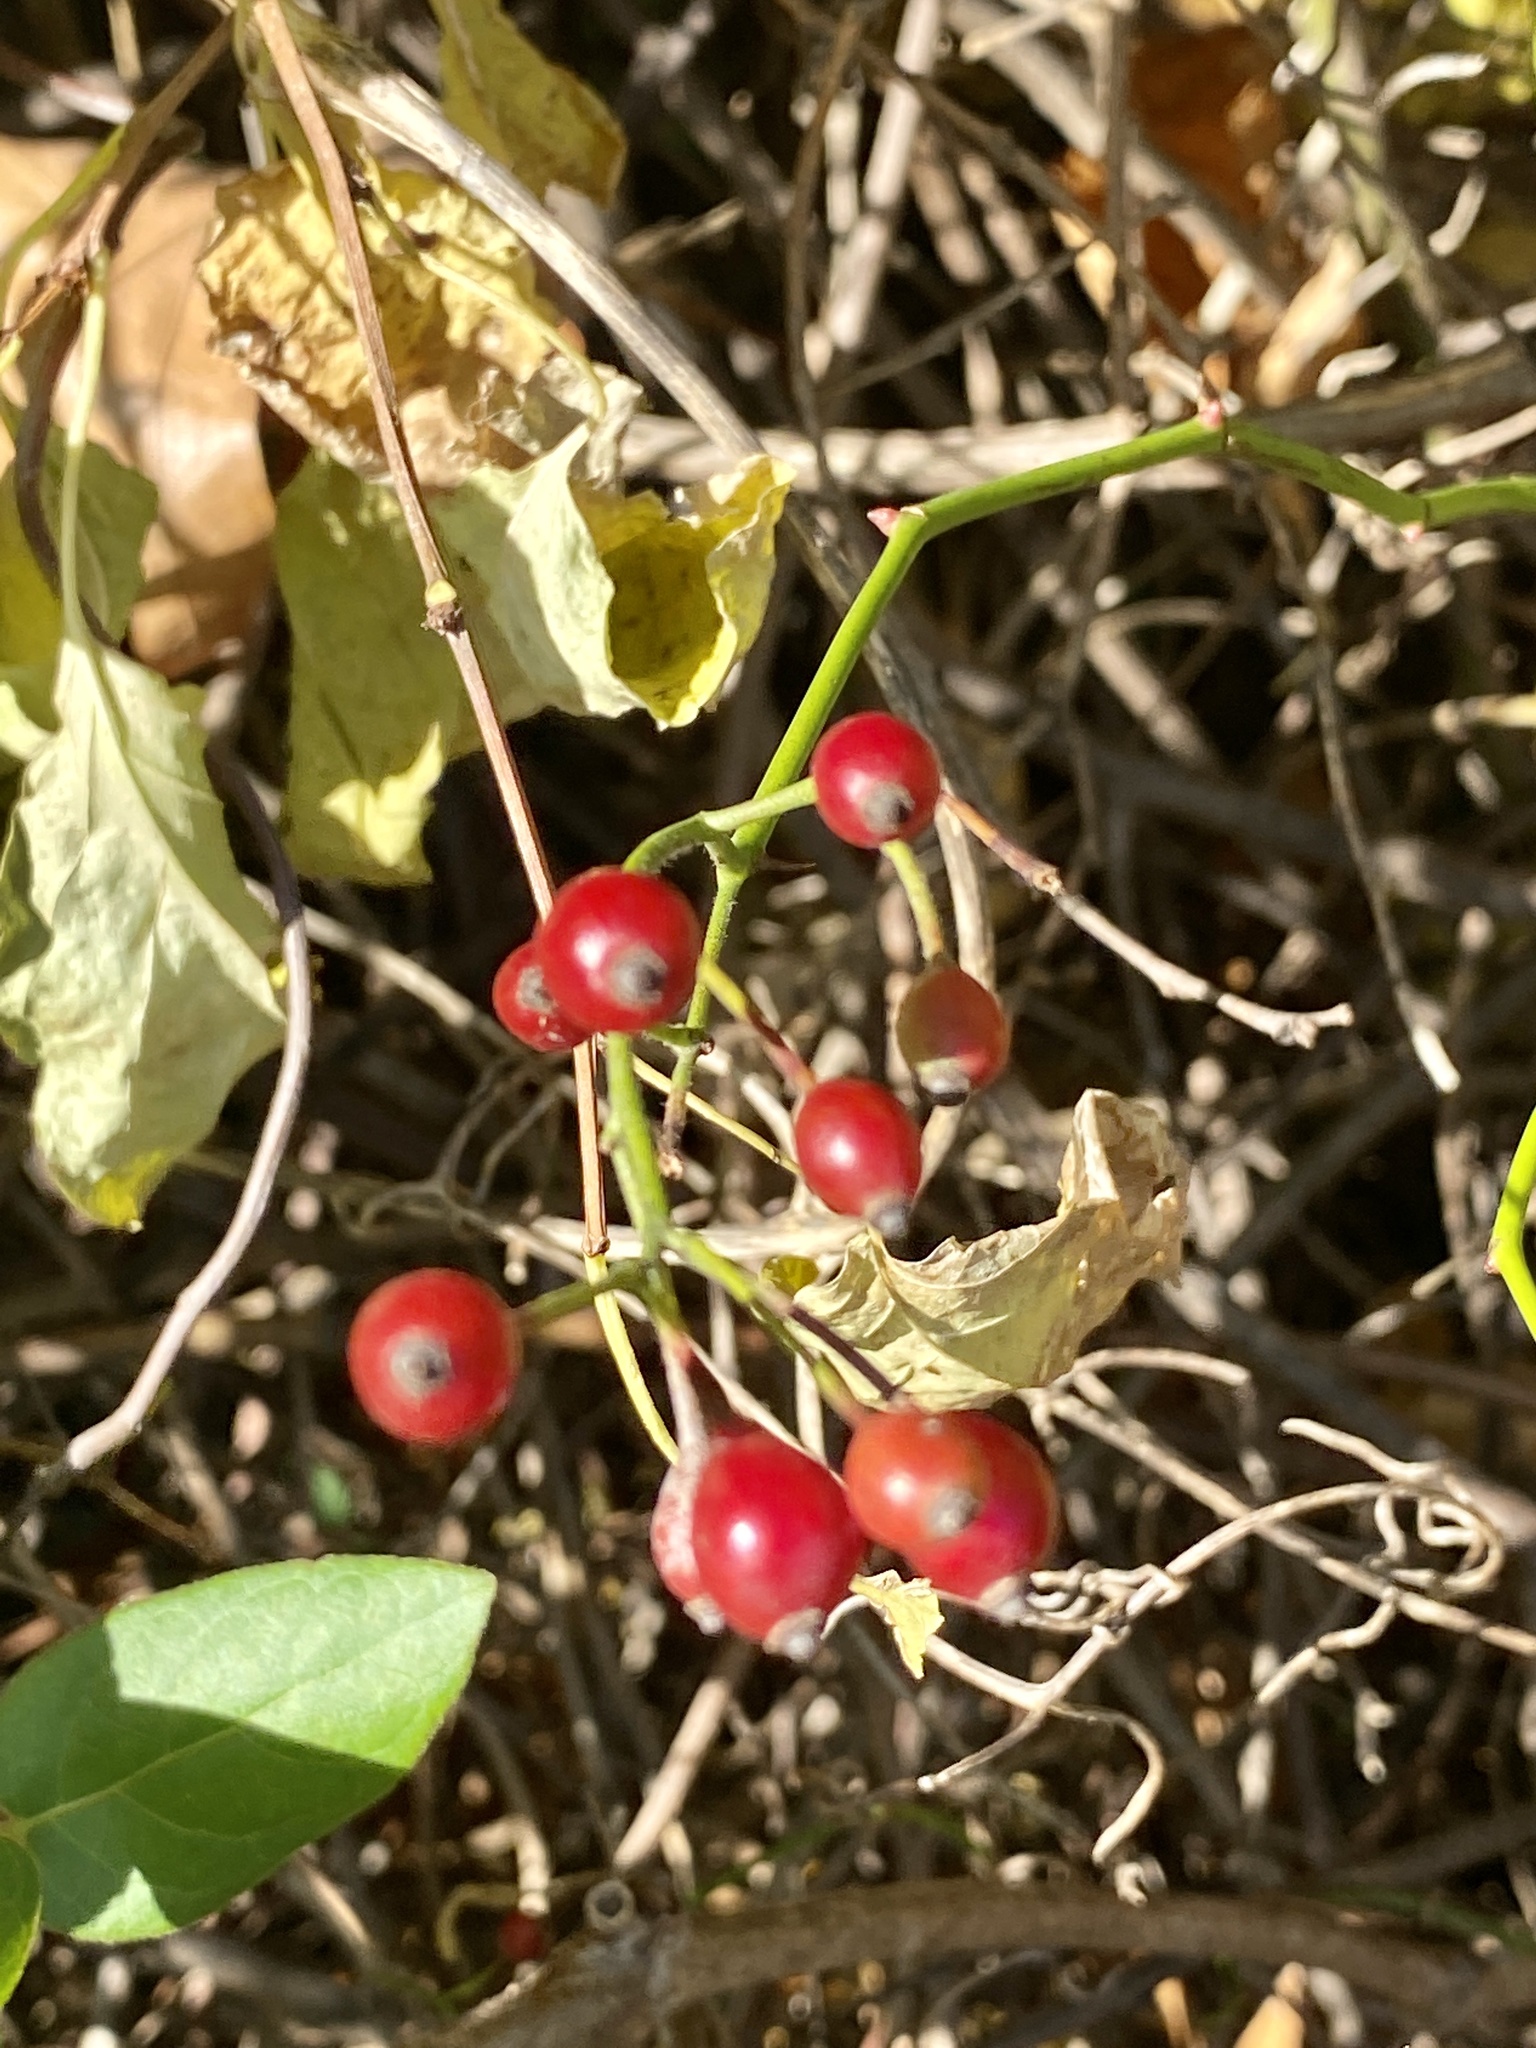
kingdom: Plantae
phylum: Tracheophyta
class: Magnoliopsida
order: Rosales
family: Rosaceae
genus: Rosa
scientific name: Rosa multiflora
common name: Multiflora rose
